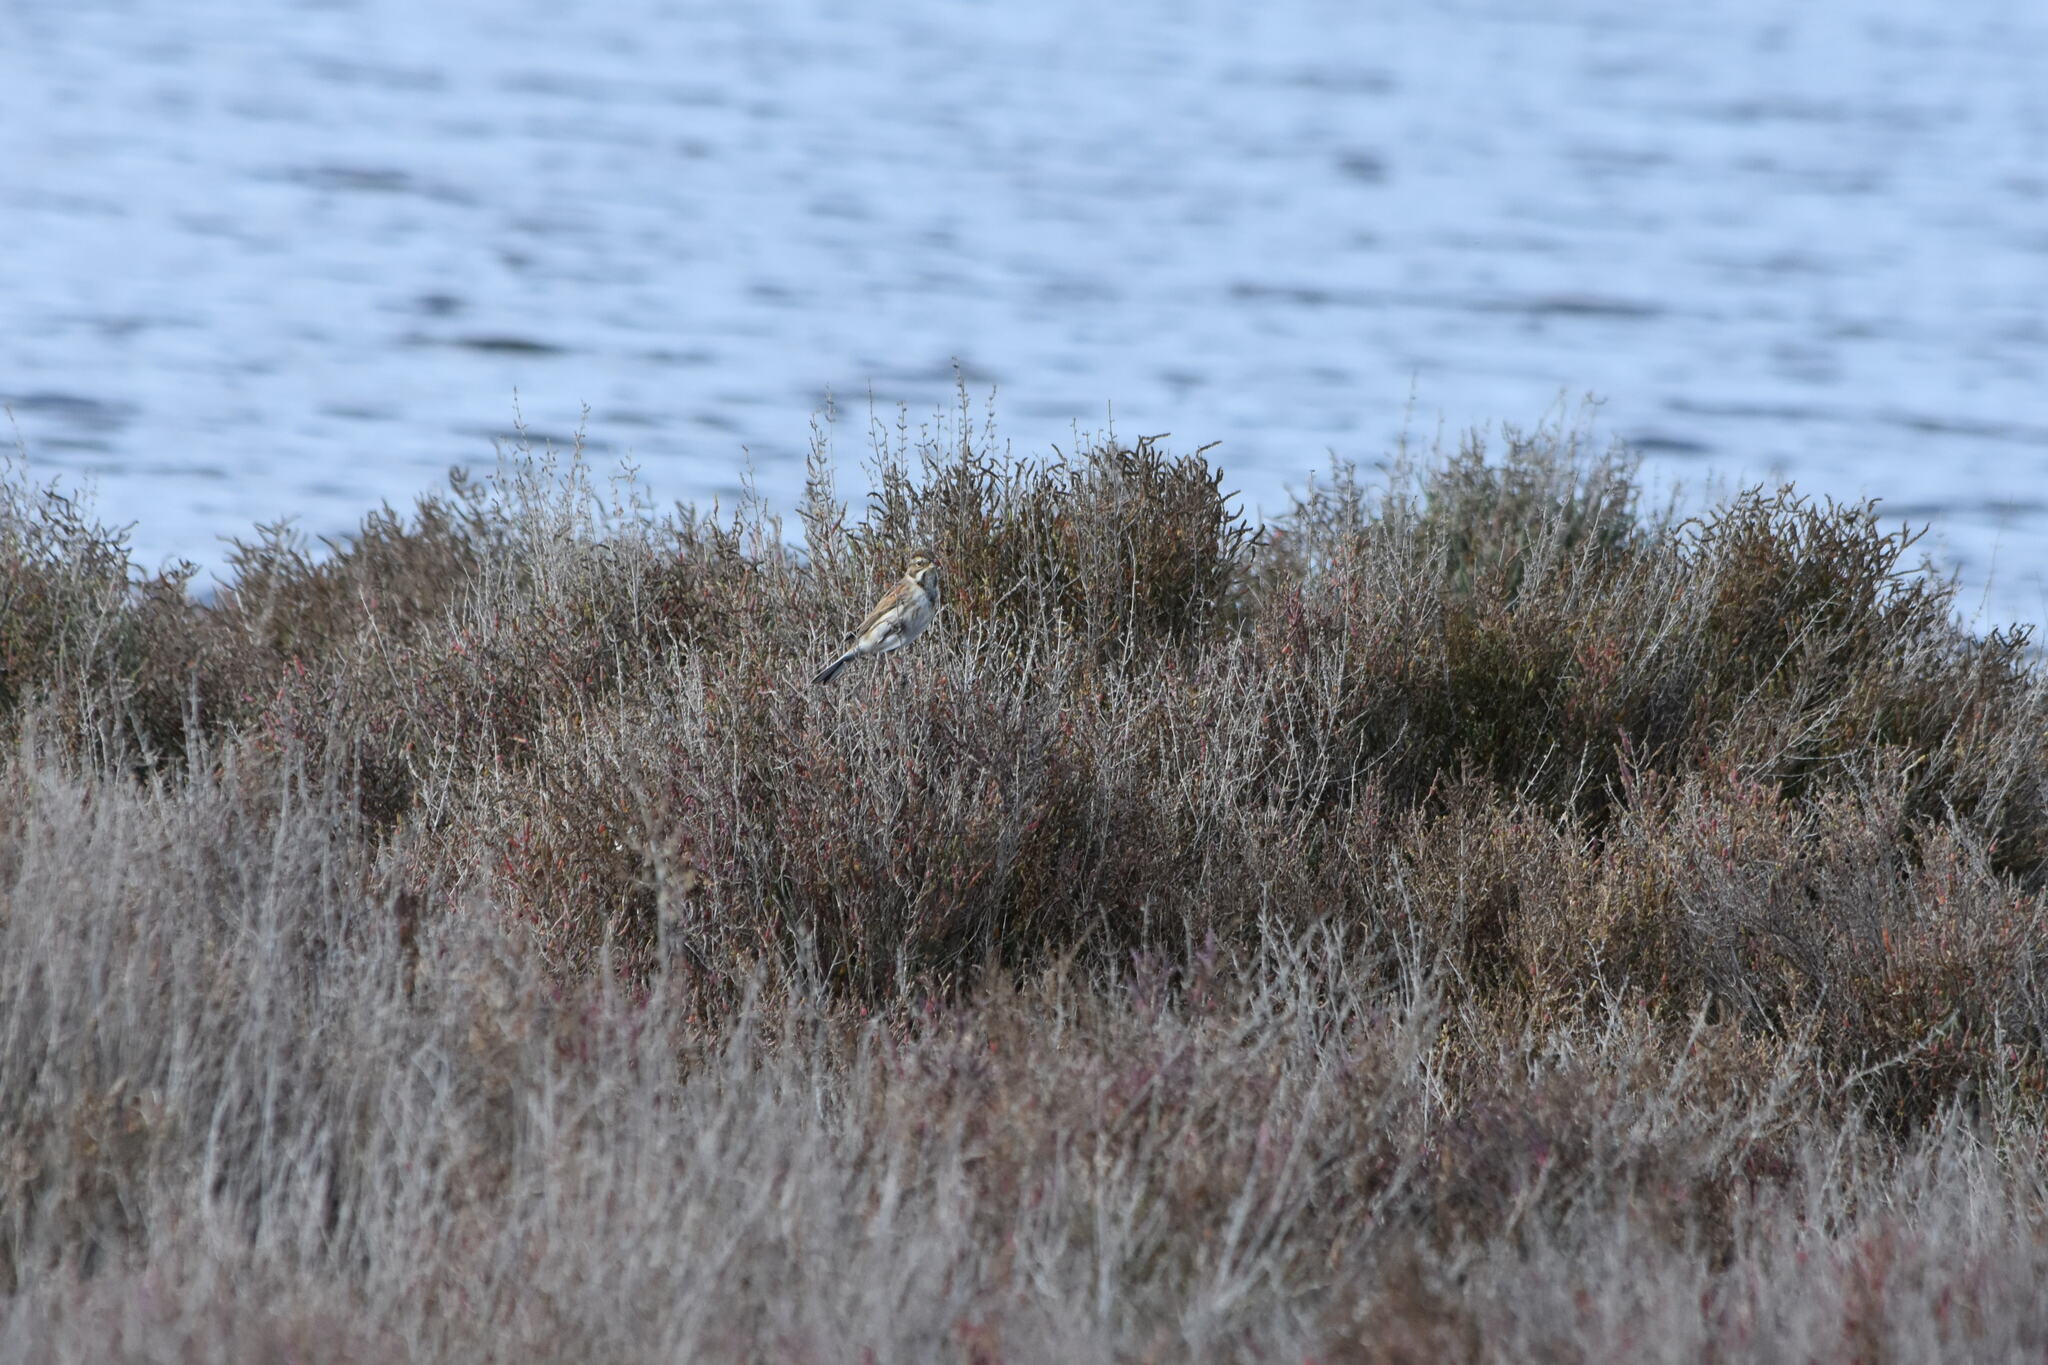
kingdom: Animalia
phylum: Chordata
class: Aves
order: Passeriformes
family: Emberizidae
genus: Emberiza
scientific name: Emberiza schoeniclus
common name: Reed bunting
